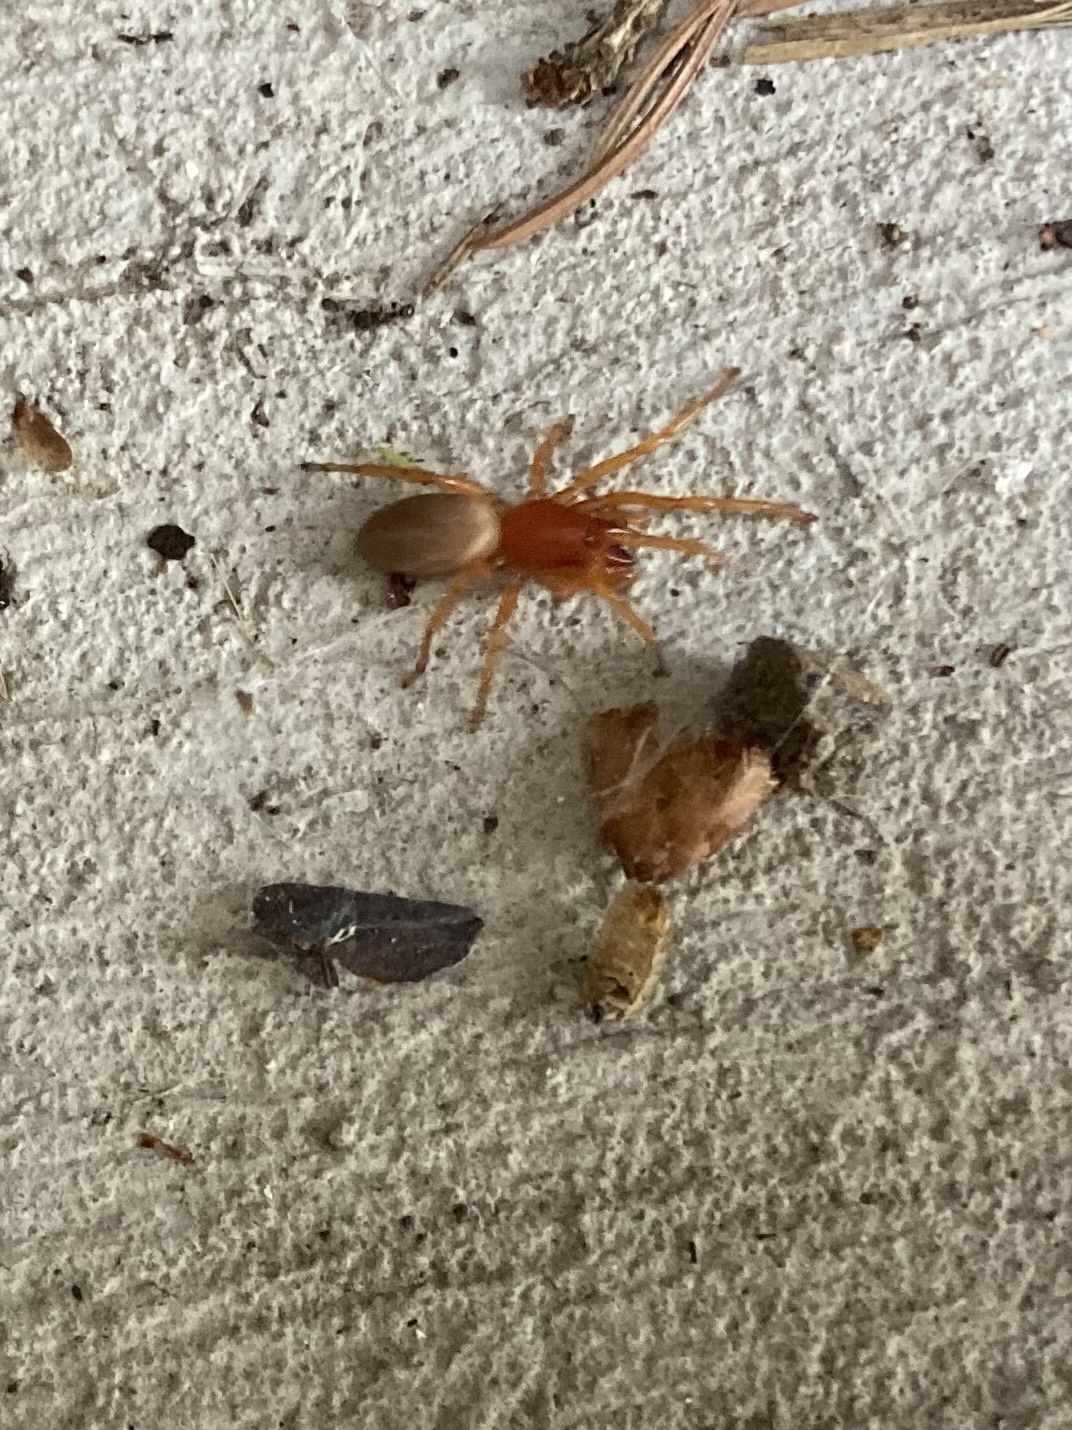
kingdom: Animalia
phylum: Arthropoda
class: Arachnida
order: Araneae
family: Dysderidae
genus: Dysdera
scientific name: Dysdera crocata
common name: Woodlouse spider
